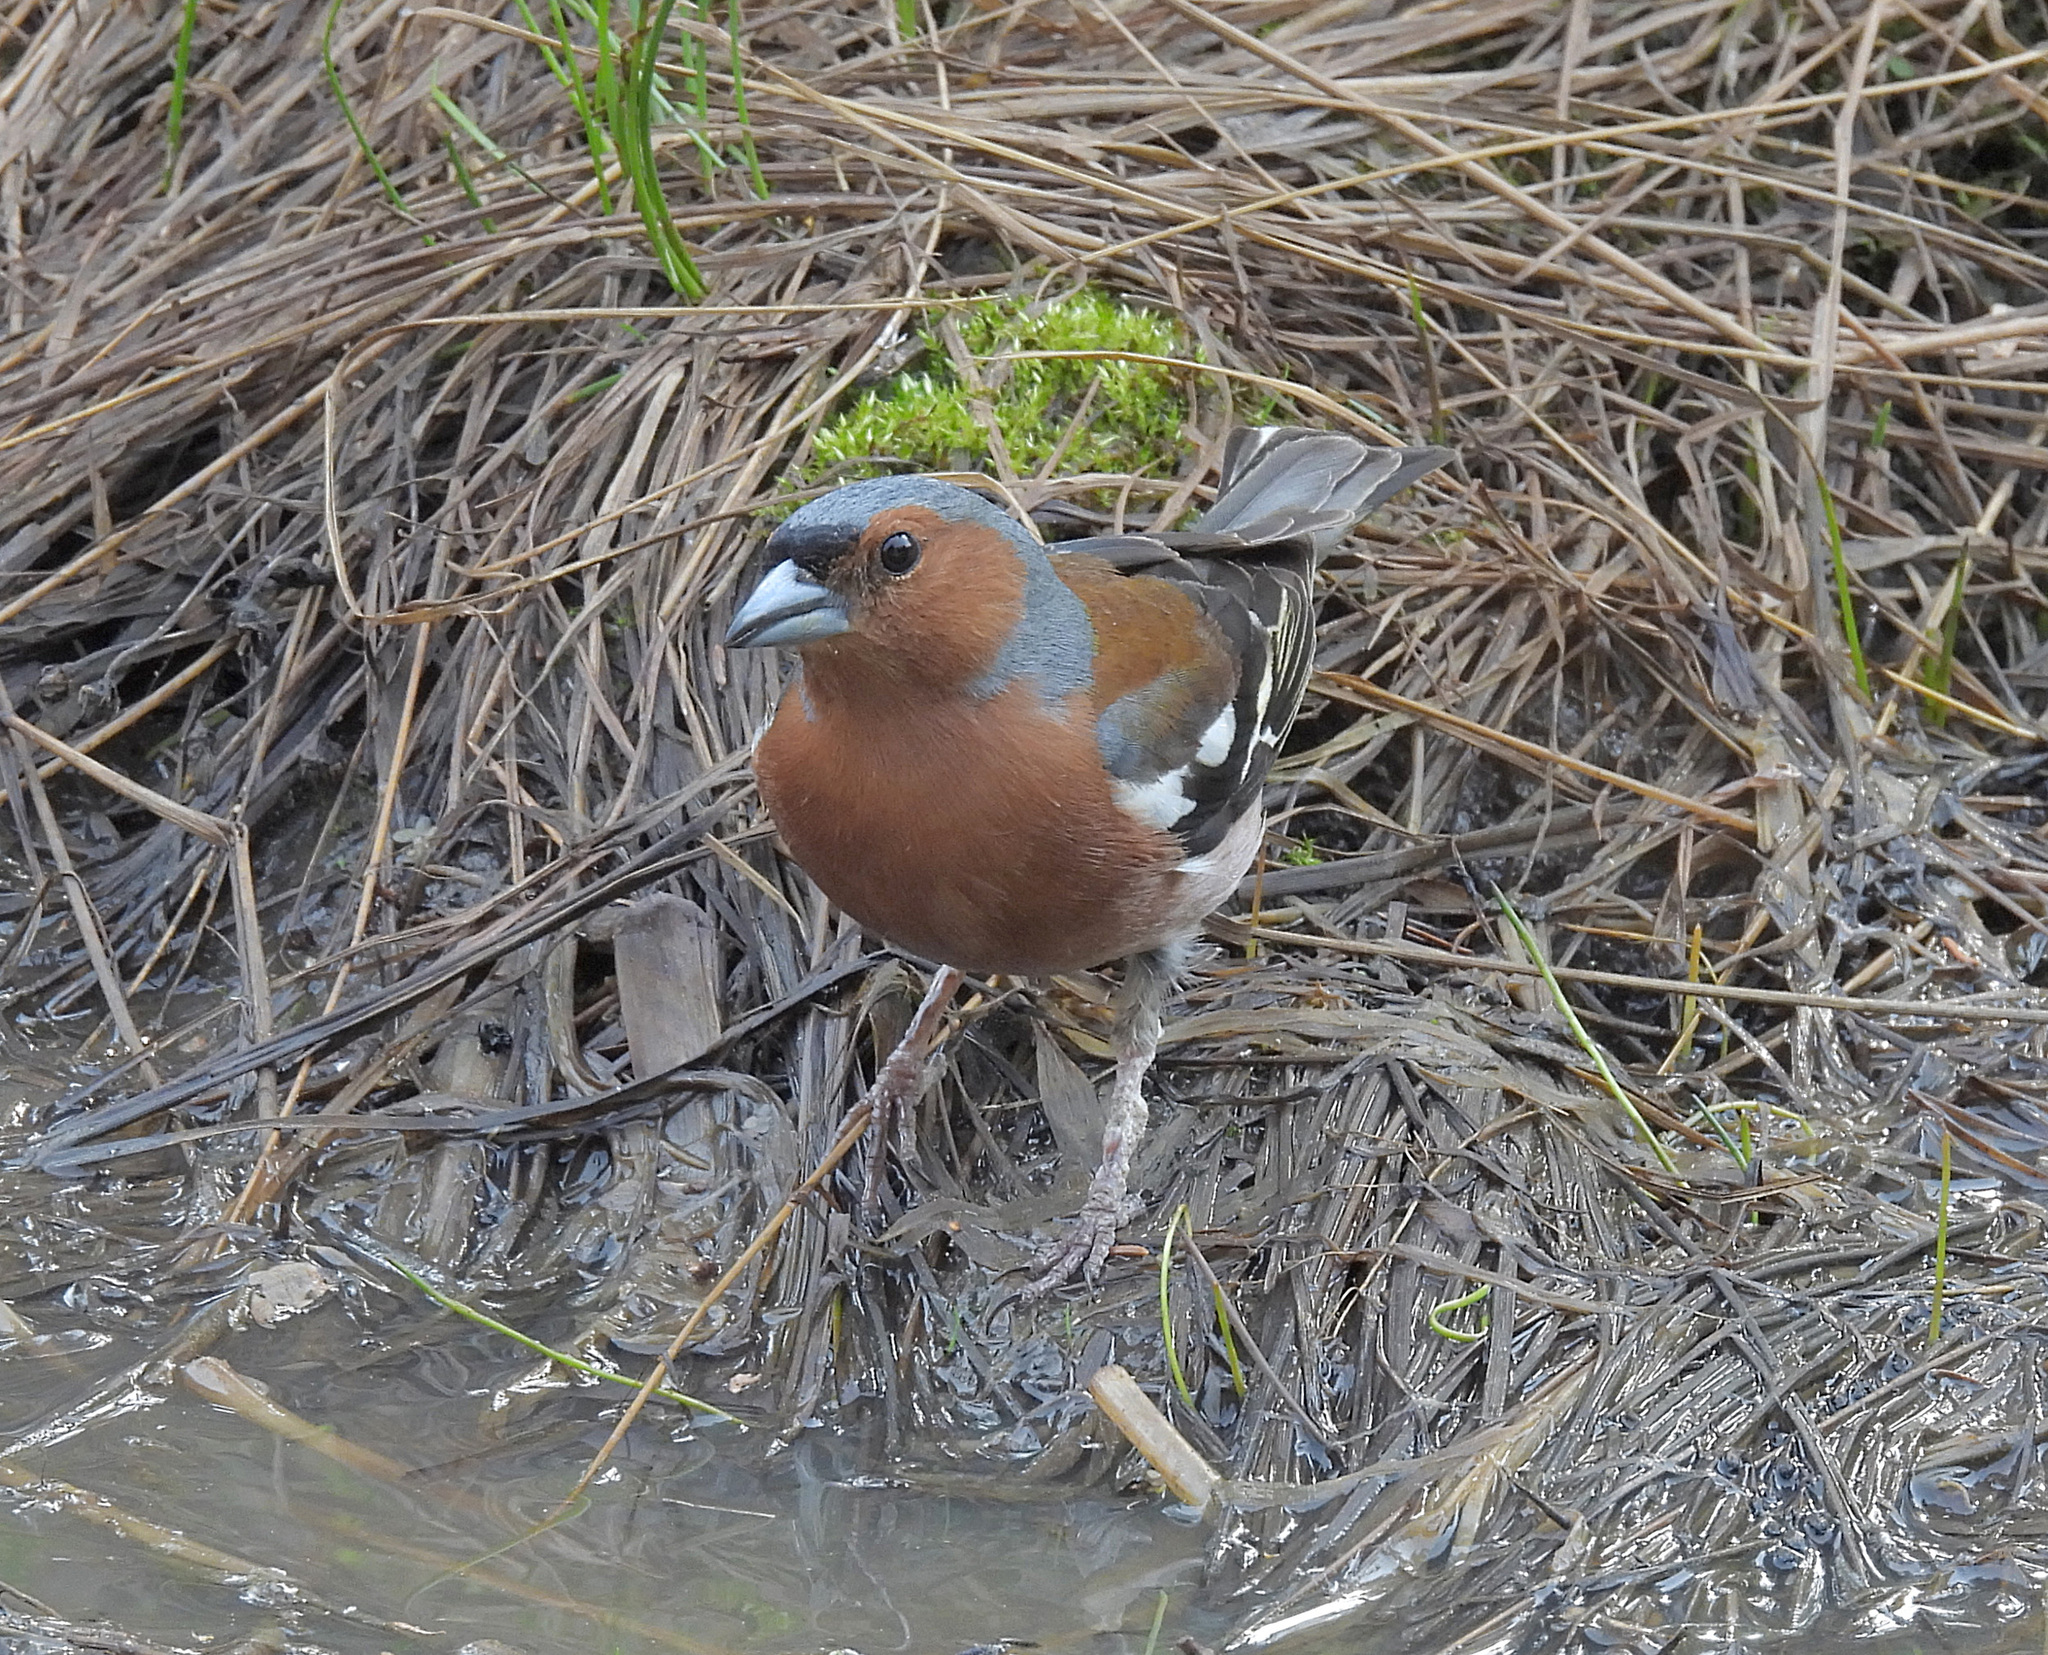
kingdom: Animalia
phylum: Chordata
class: Aves
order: Passeriformes
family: Fringillidae
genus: Fringilla
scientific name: Fringilla coelebs
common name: Common chaffinch
